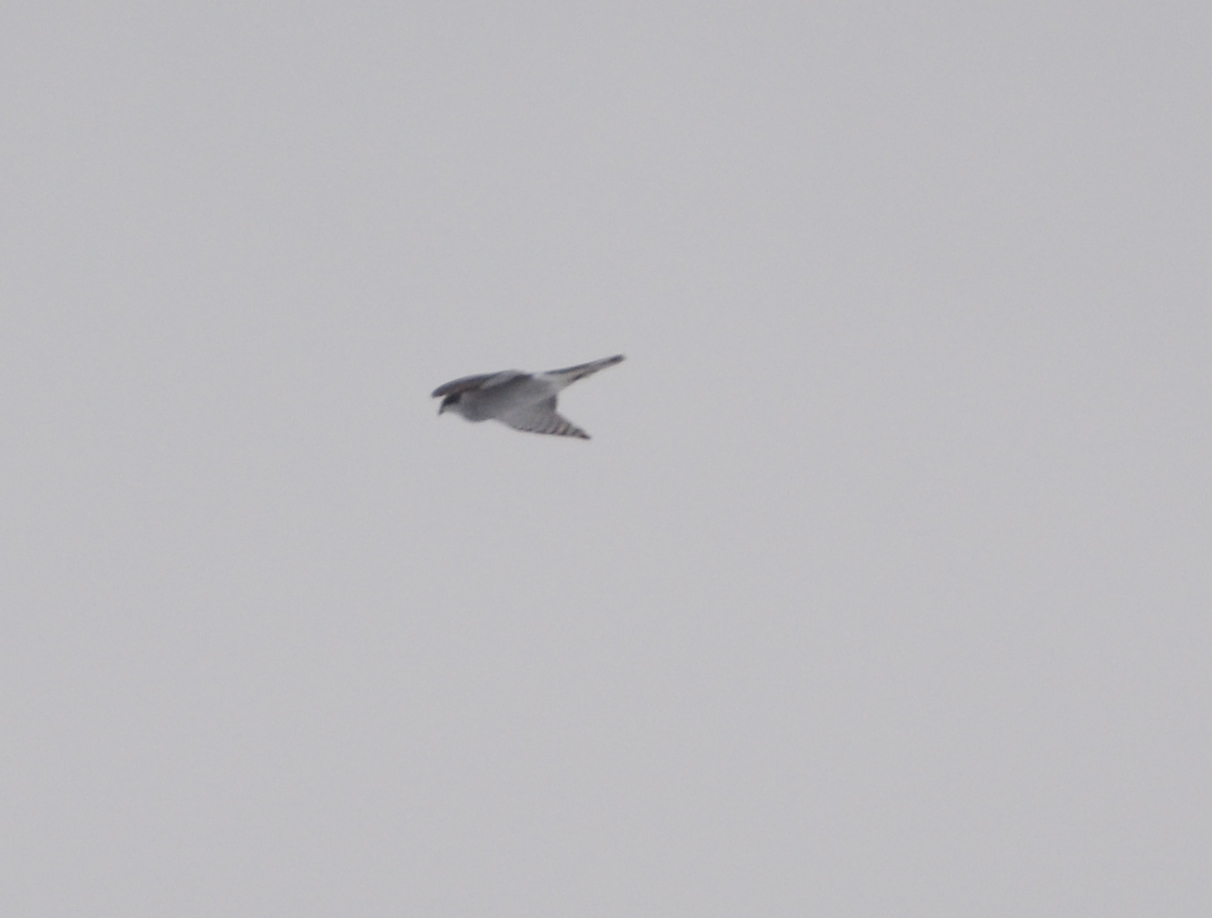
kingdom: Animalia
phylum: Chordata
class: Aves
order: Accipitriformes
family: Accipitridae
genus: Accipiter
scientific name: Accipiter gentilis
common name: Northern goshawk
